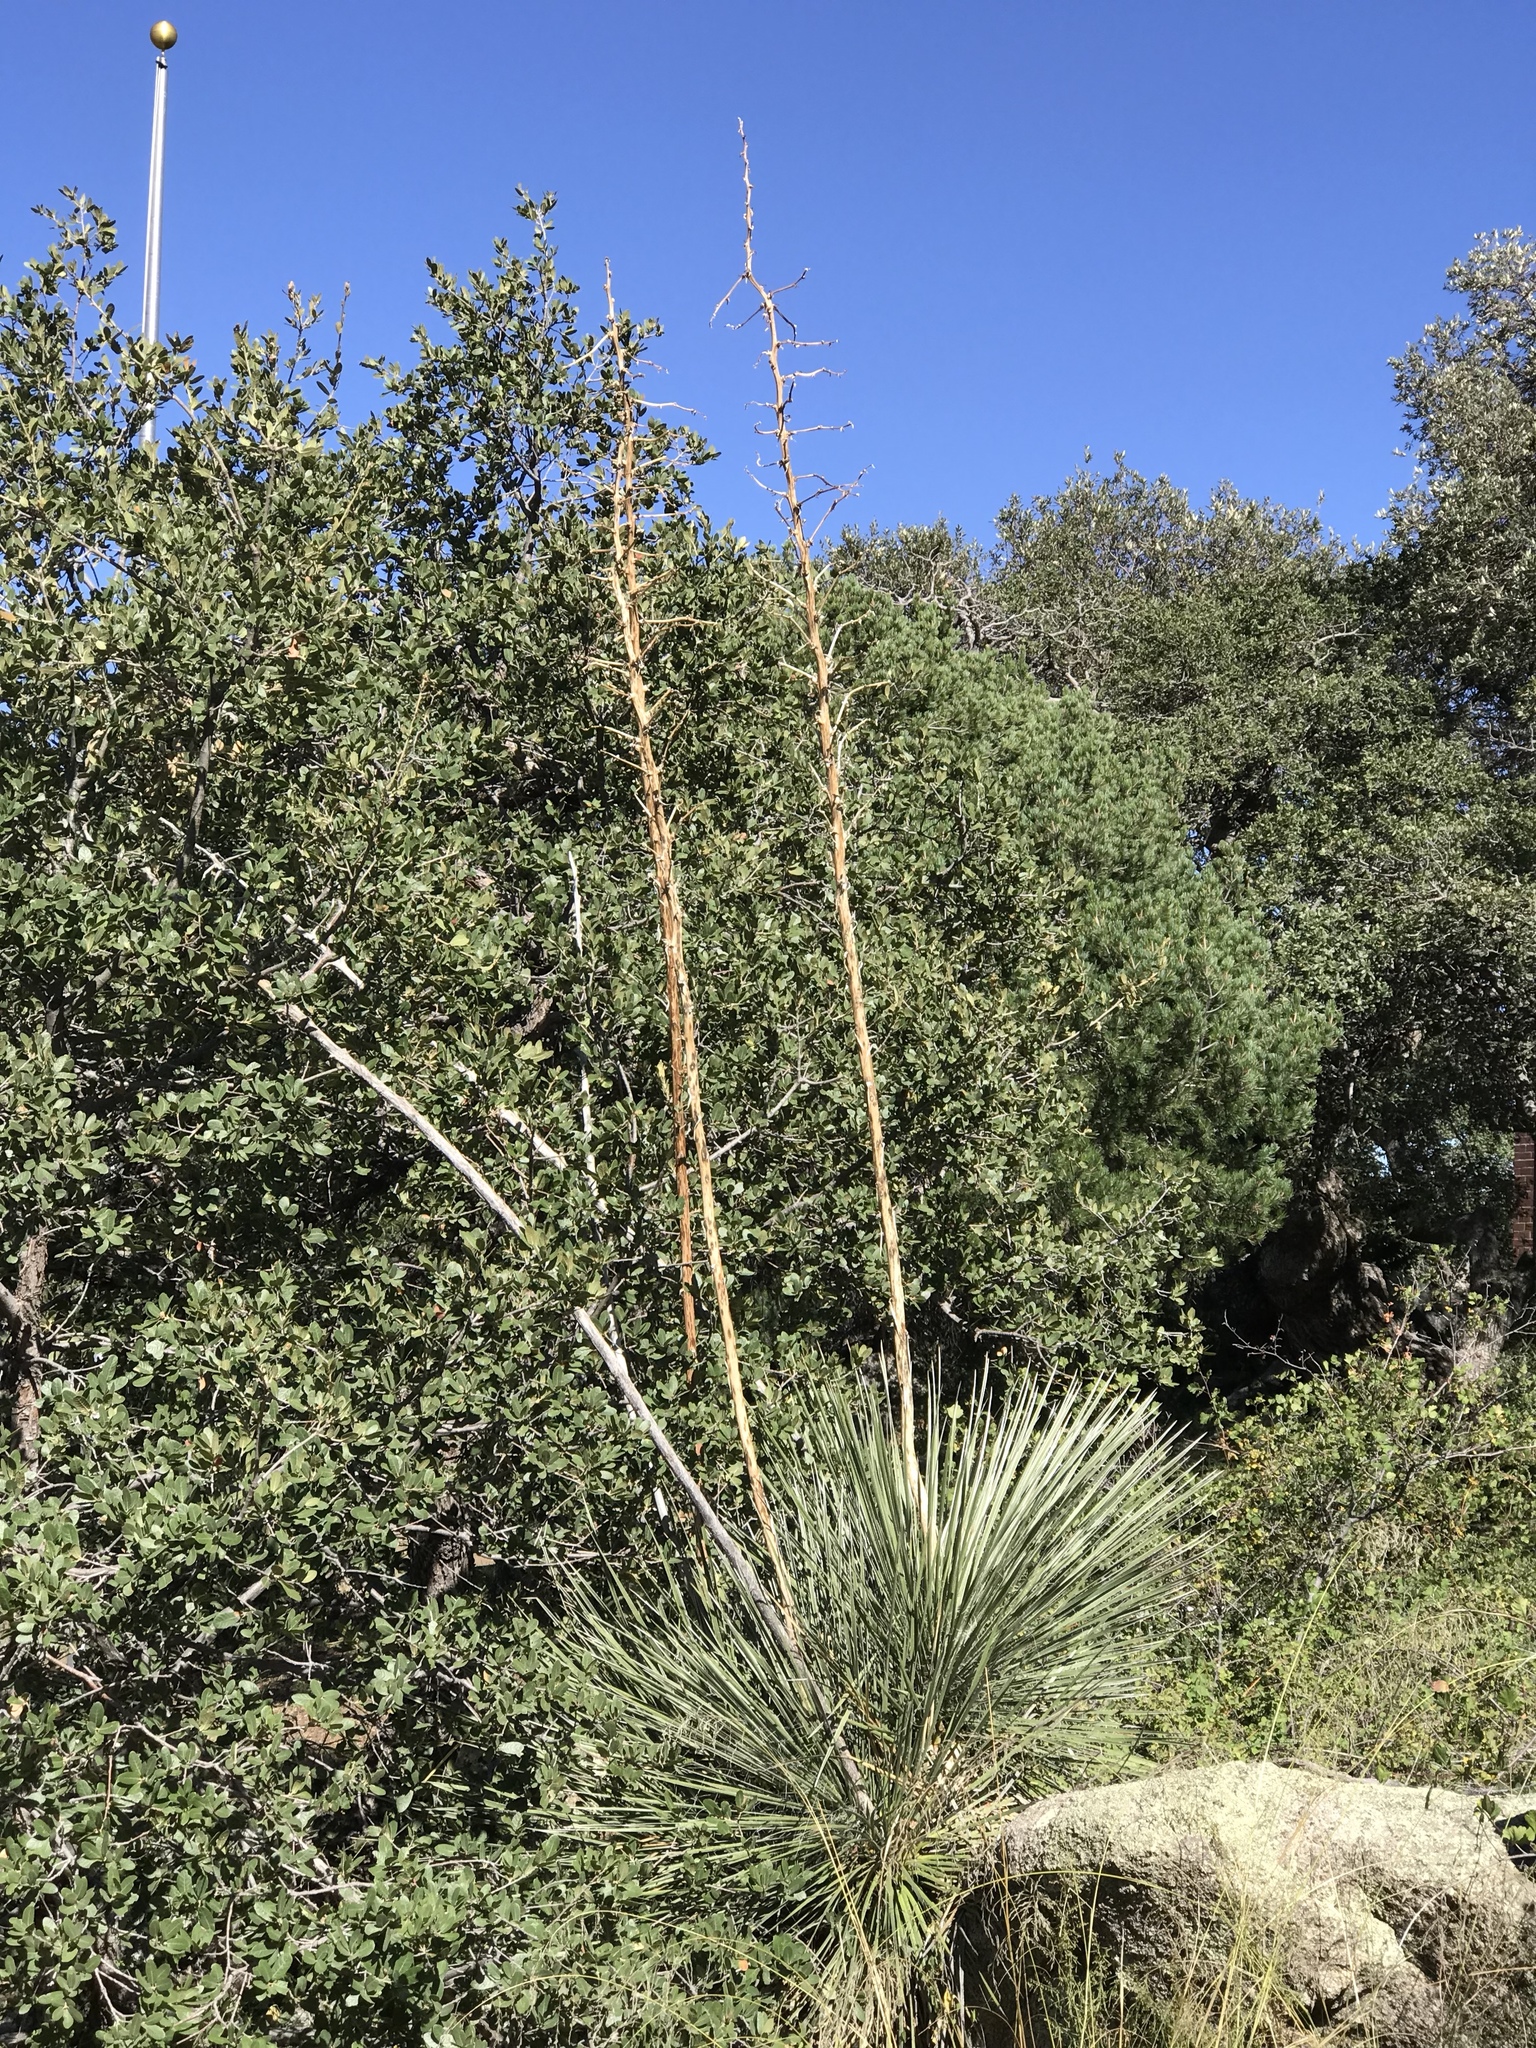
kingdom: Plantae
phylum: Tracheophyta
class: Liliopsida
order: Asparagales
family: Asparagaceae
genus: Dasylirion
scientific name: Dasylirion wheeleri
